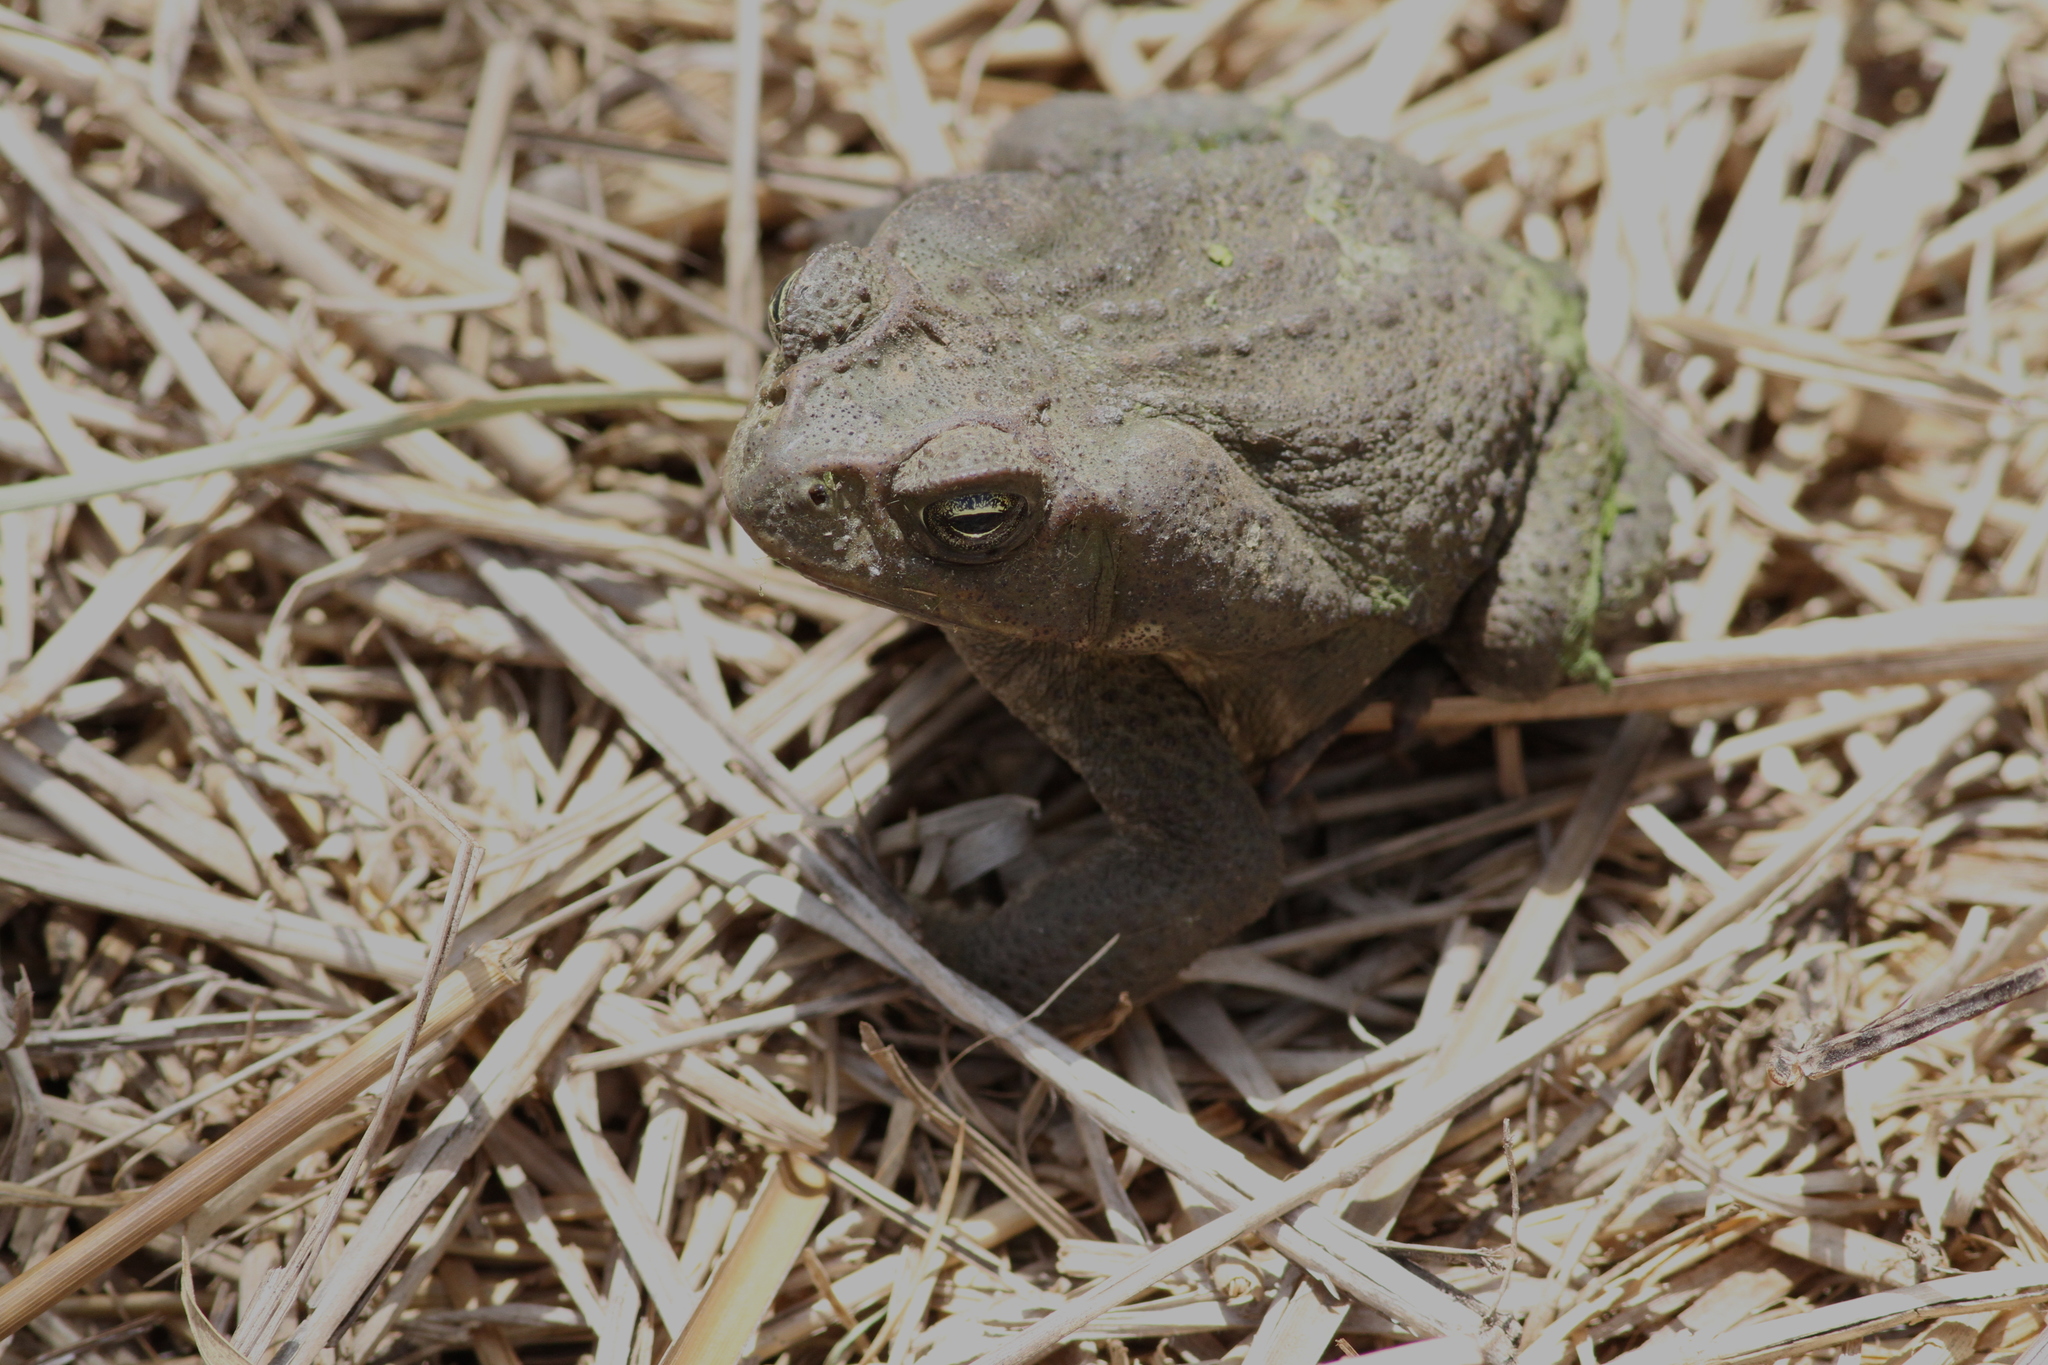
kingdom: Animalia
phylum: Chordata
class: Amphibia
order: Anura
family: Bufonidae
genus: Rhinella
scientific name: Rhinella horribilis
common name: Mesoamerican cane toad
